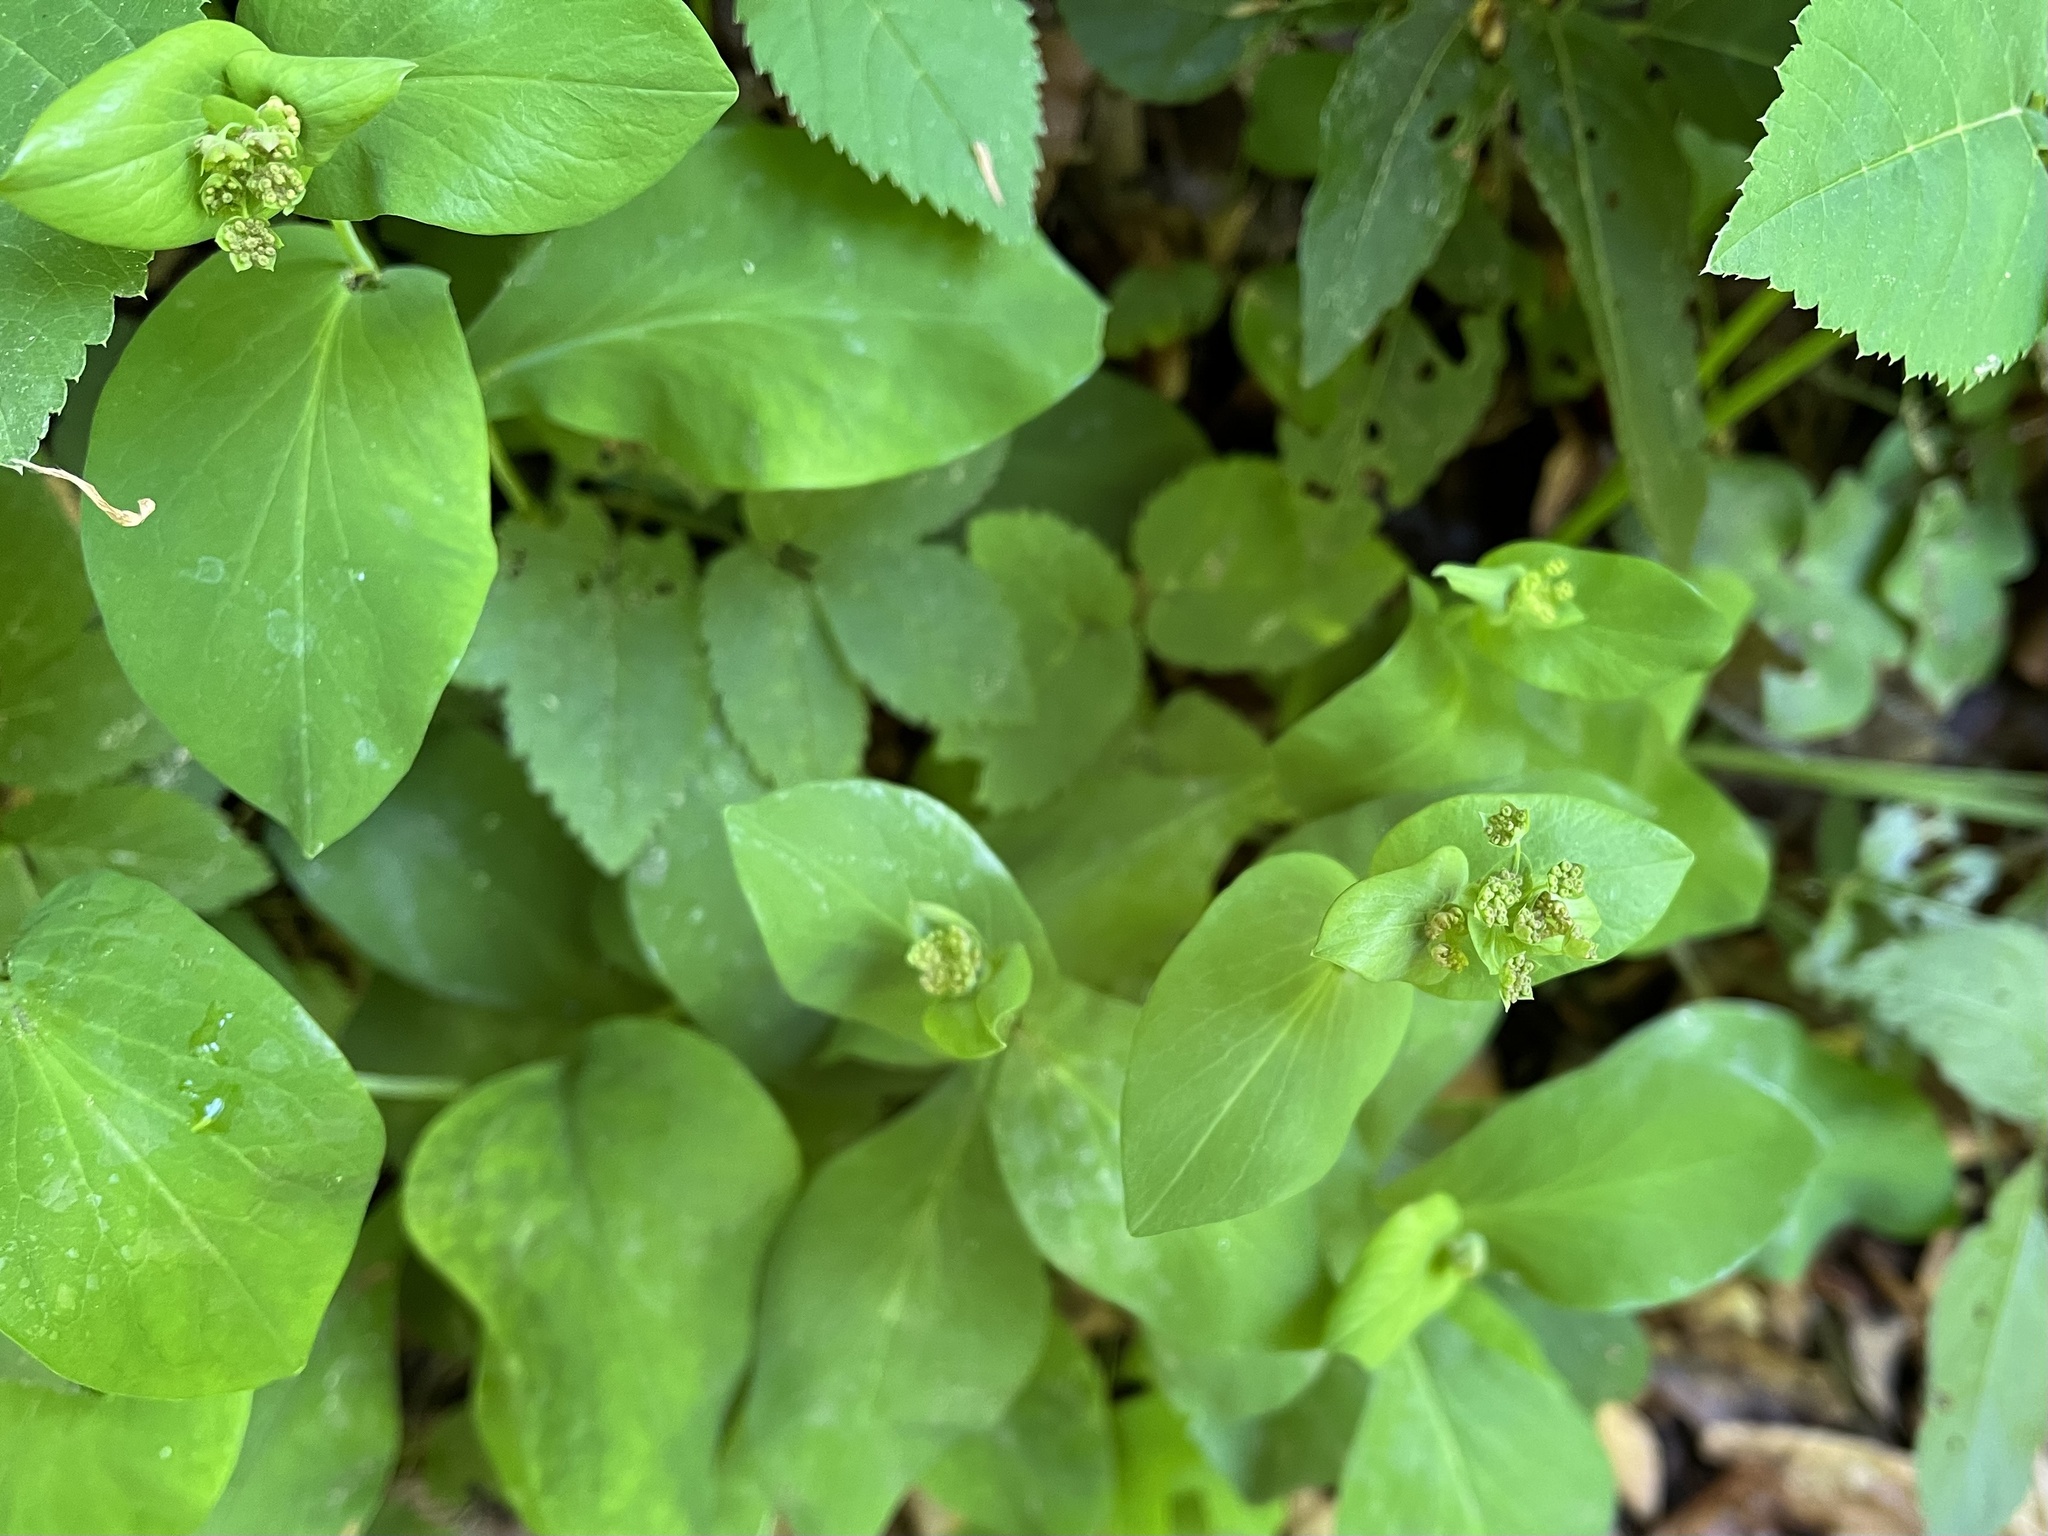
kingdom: Plantae
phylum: Tracheophyta
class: Magnoliopsida
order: Apiales
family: Apiaceae
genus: Bupleurum
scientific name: Bupleurum longifolium
